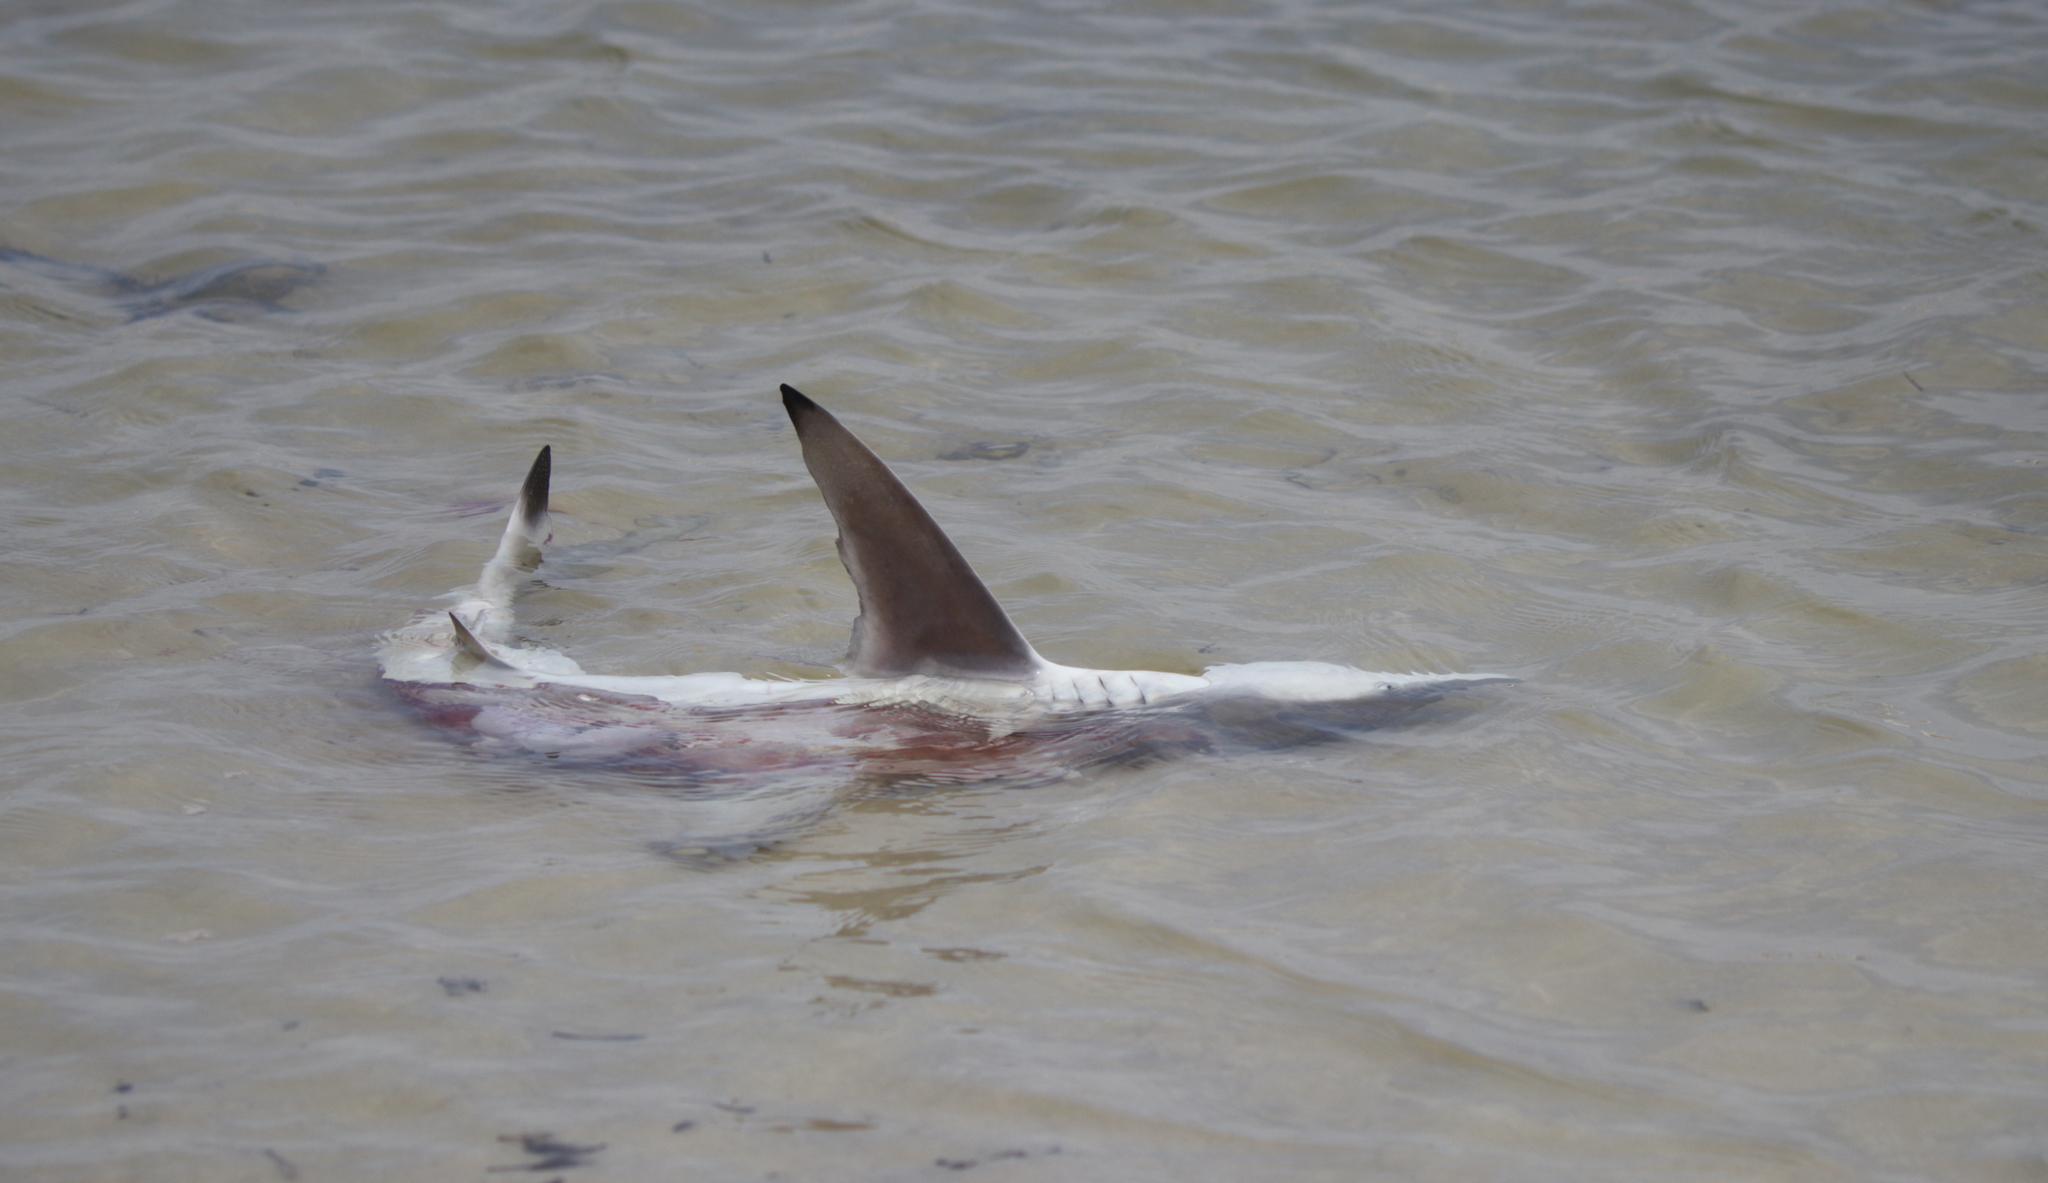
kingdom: Animalia
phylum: Chordata
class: Elasmobranchii
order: Carcharhiniformes
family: Carcharhinidae
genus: Carcharhinus
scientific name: Carcharhinus limbatus
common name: Blacktip shark
